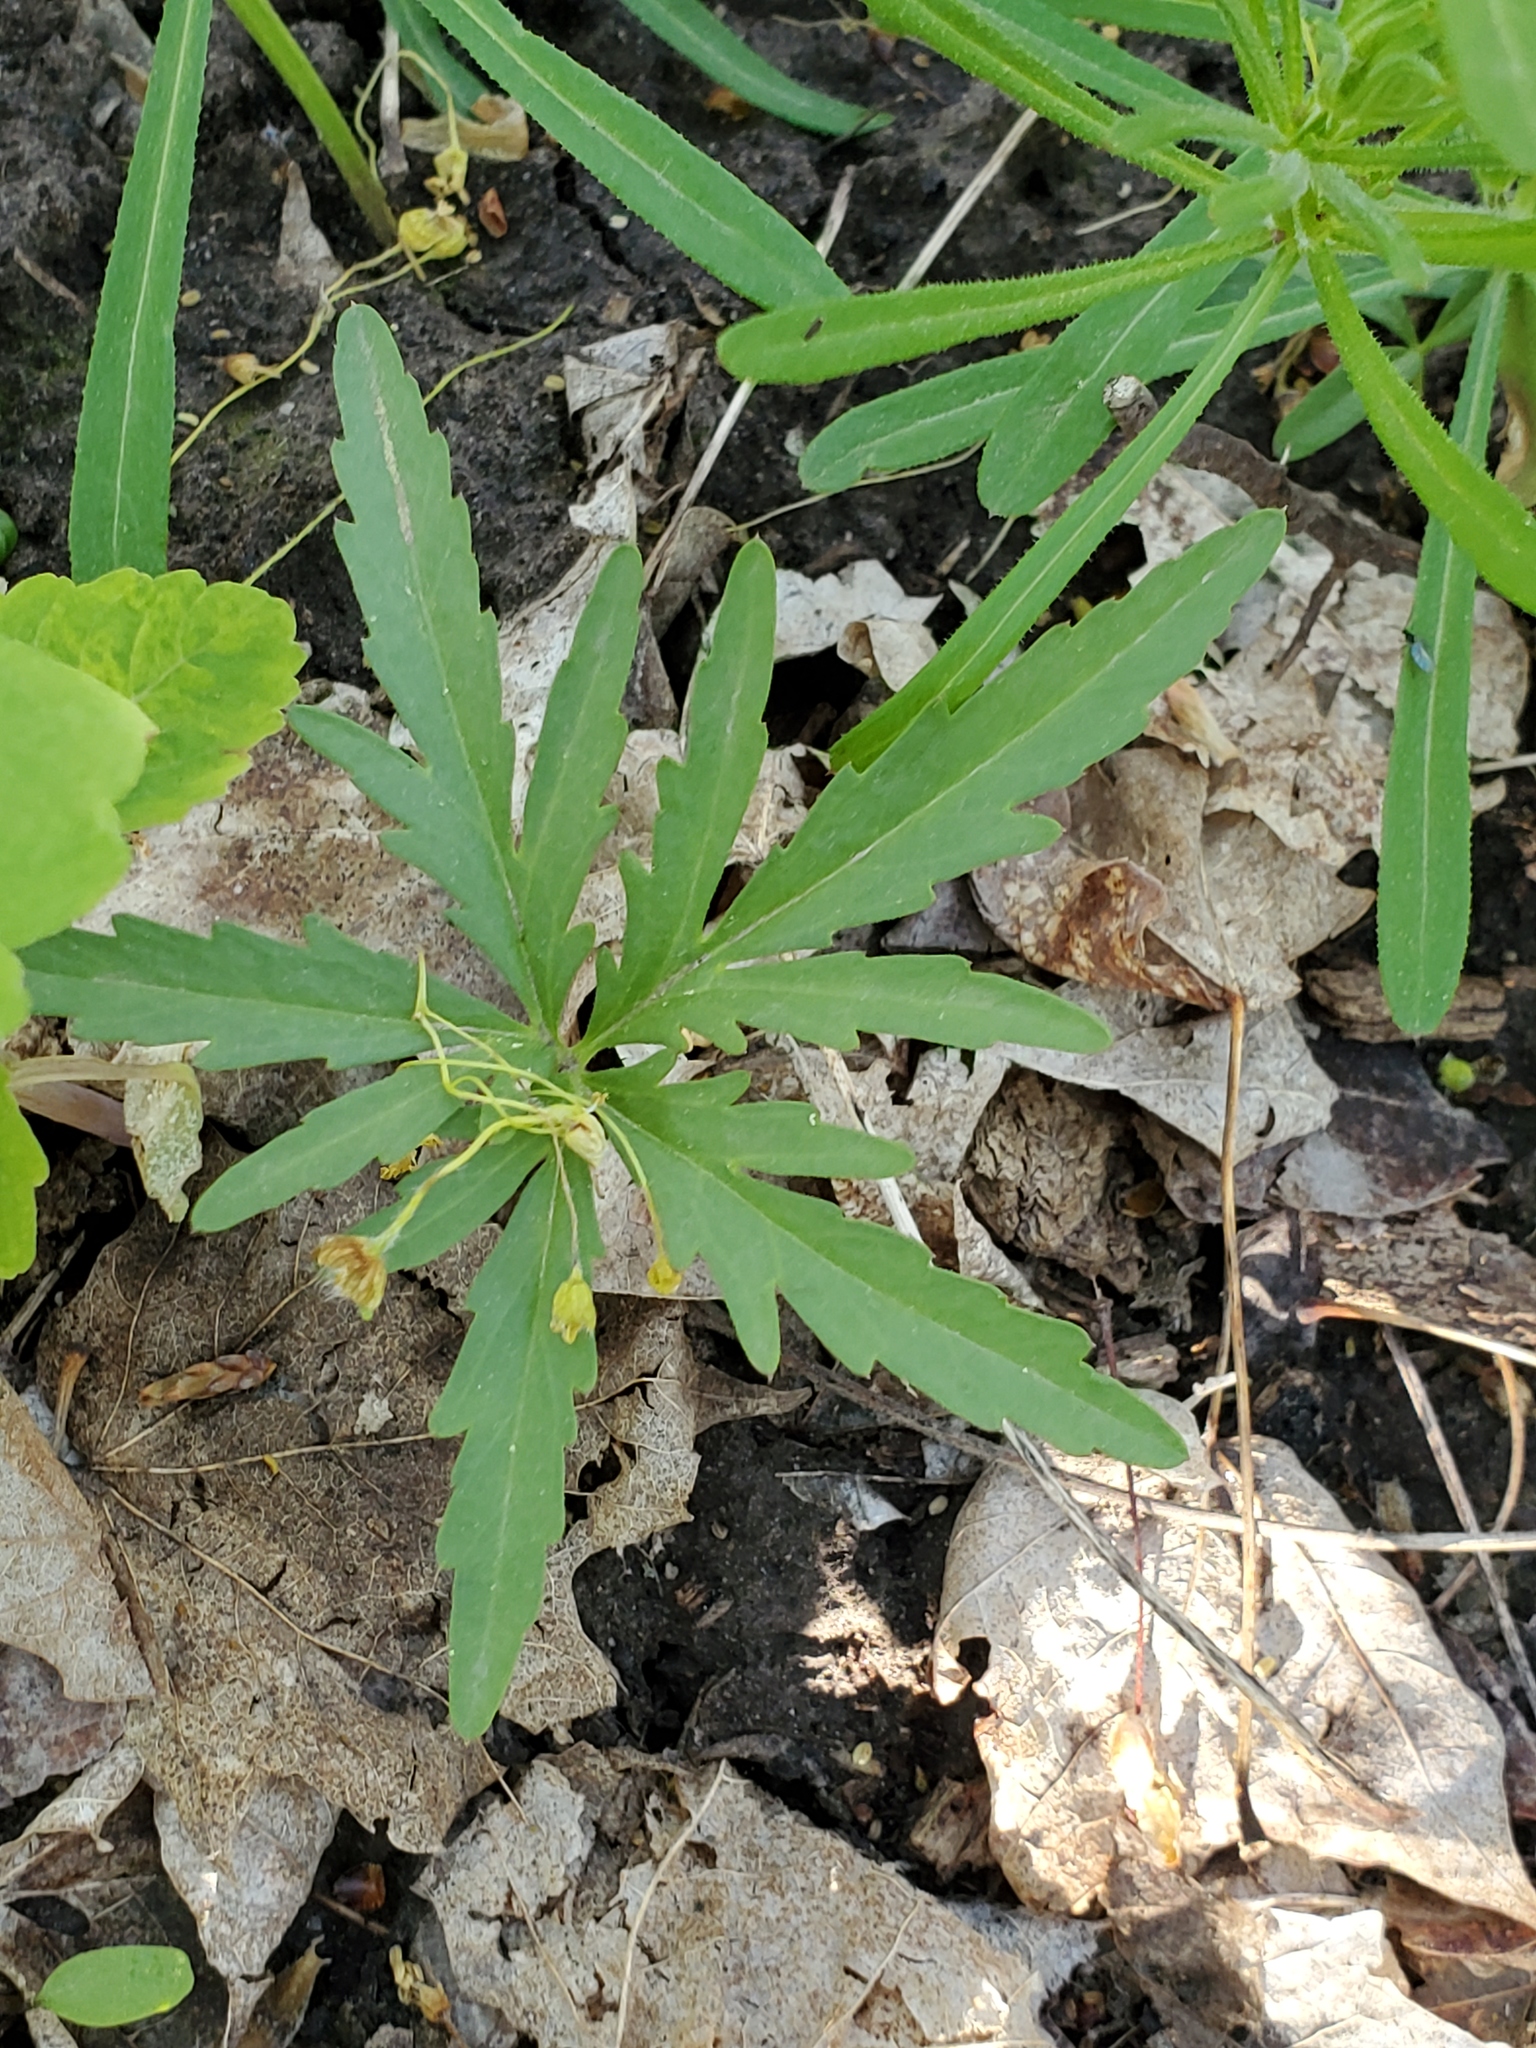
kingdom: Plantae
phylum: Tracheophyta
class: Magnoliopsida
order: Brassicales
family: Brassicaceae
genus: Cardamine
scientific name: Cardamine concatenata
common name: Cut-leaf toothcup
